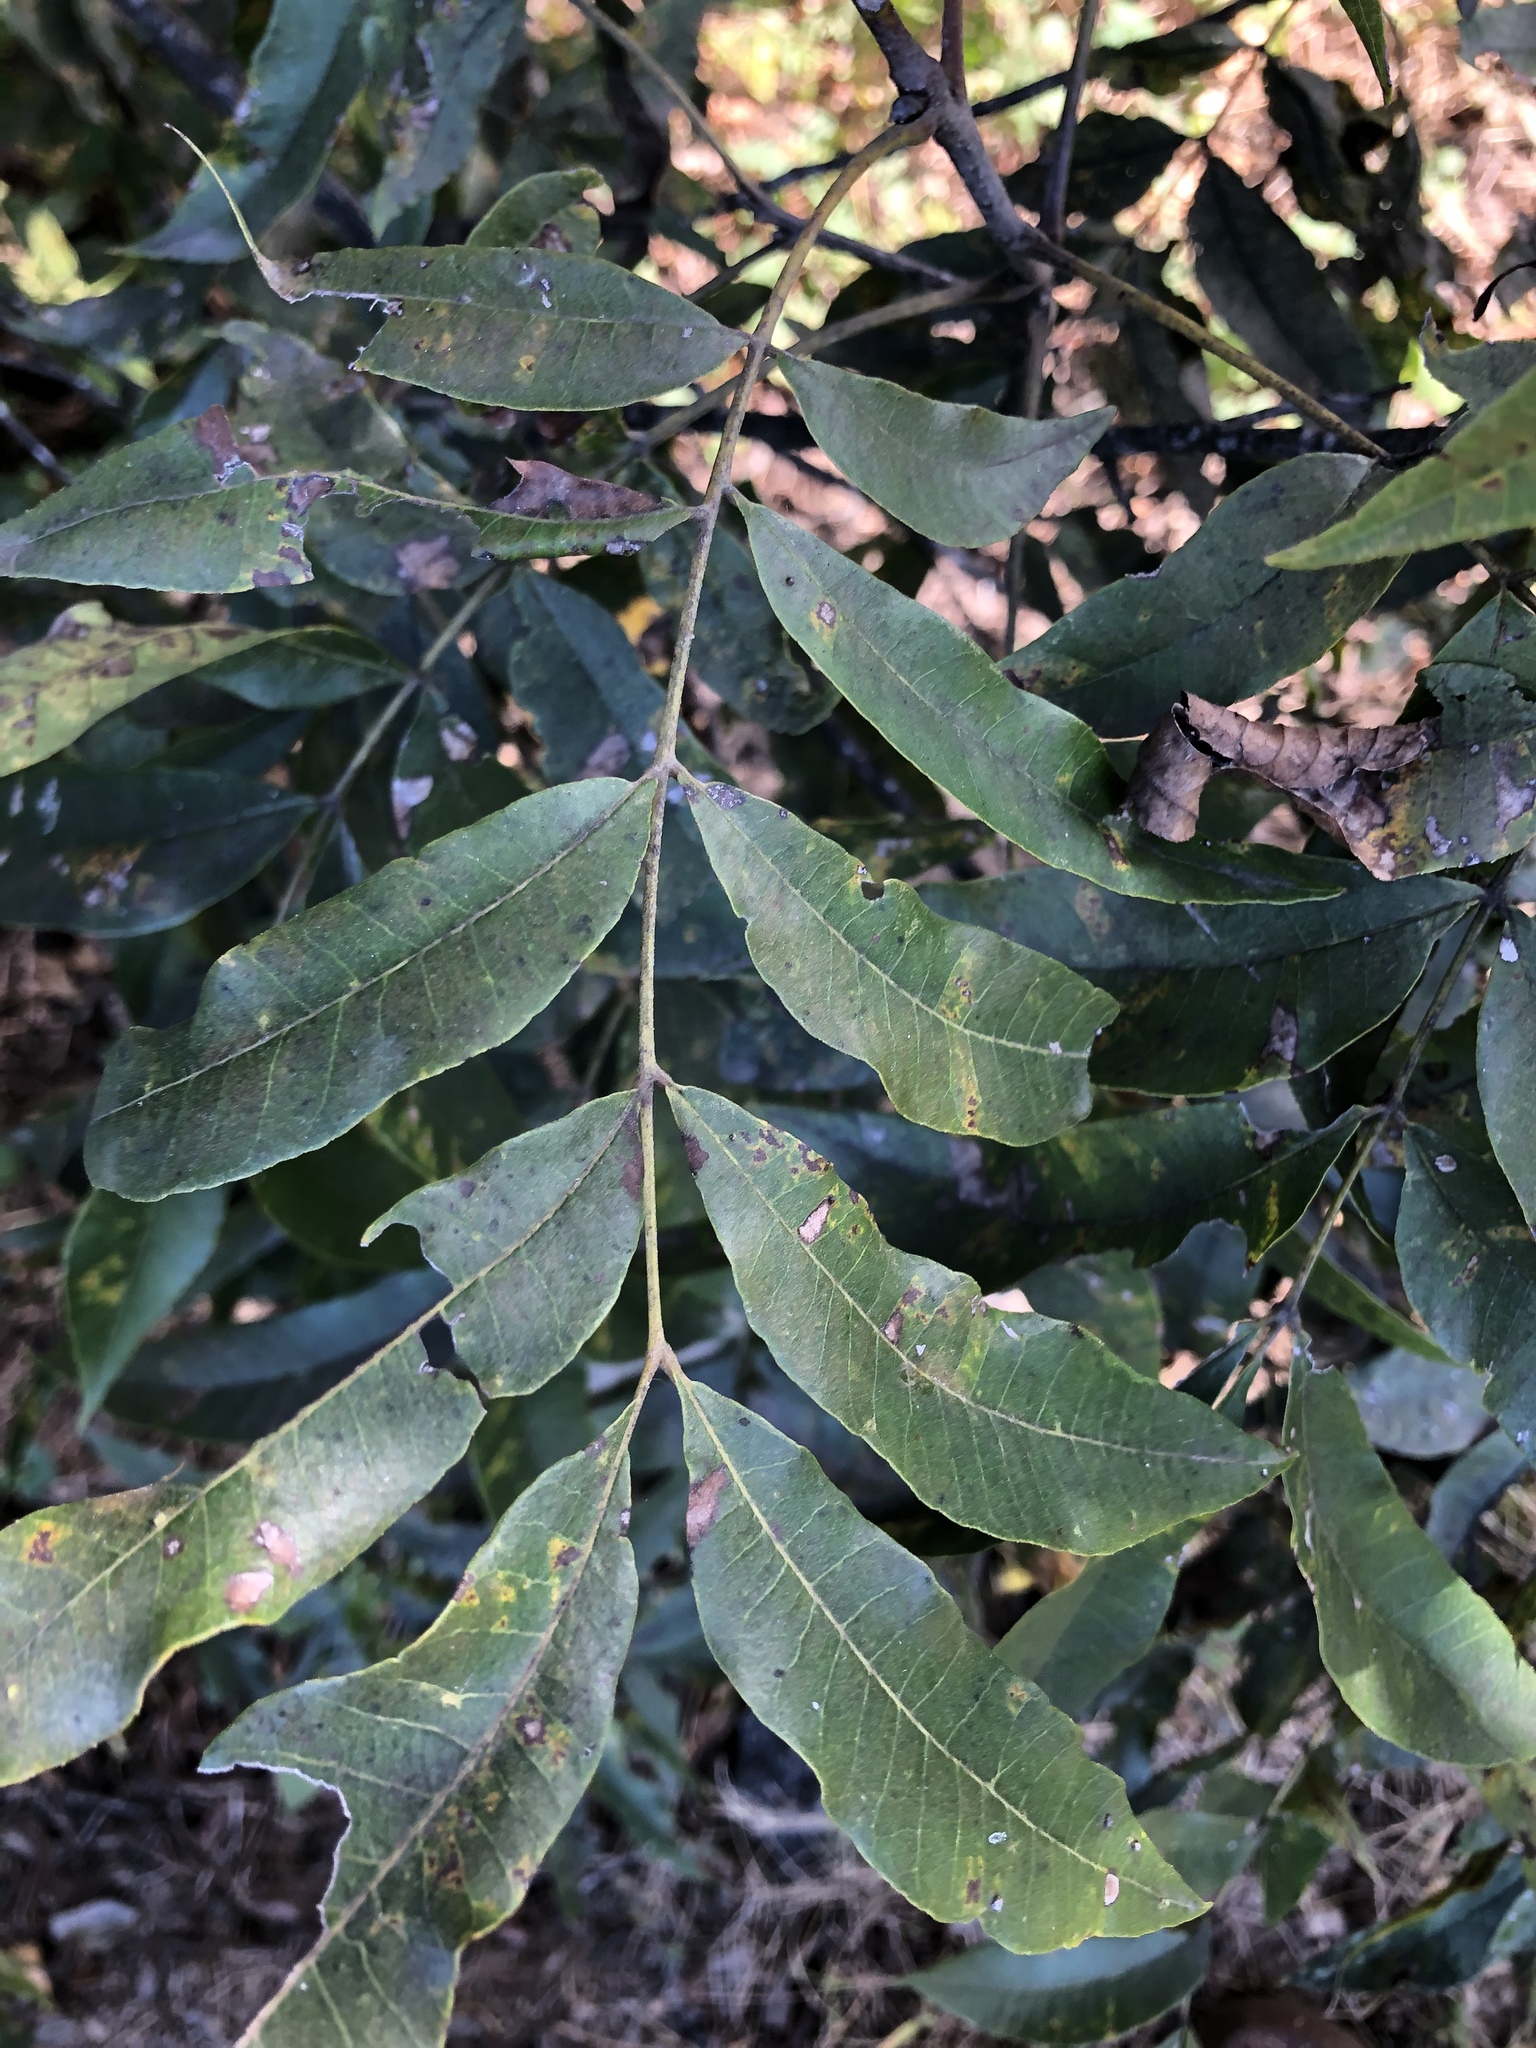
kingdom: Plantae
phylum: Tracheophyta
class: Magnoliopsida
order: Fagales
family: Juglandaceae
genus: Carya
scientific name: Carya aquatica
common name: Water hickory
